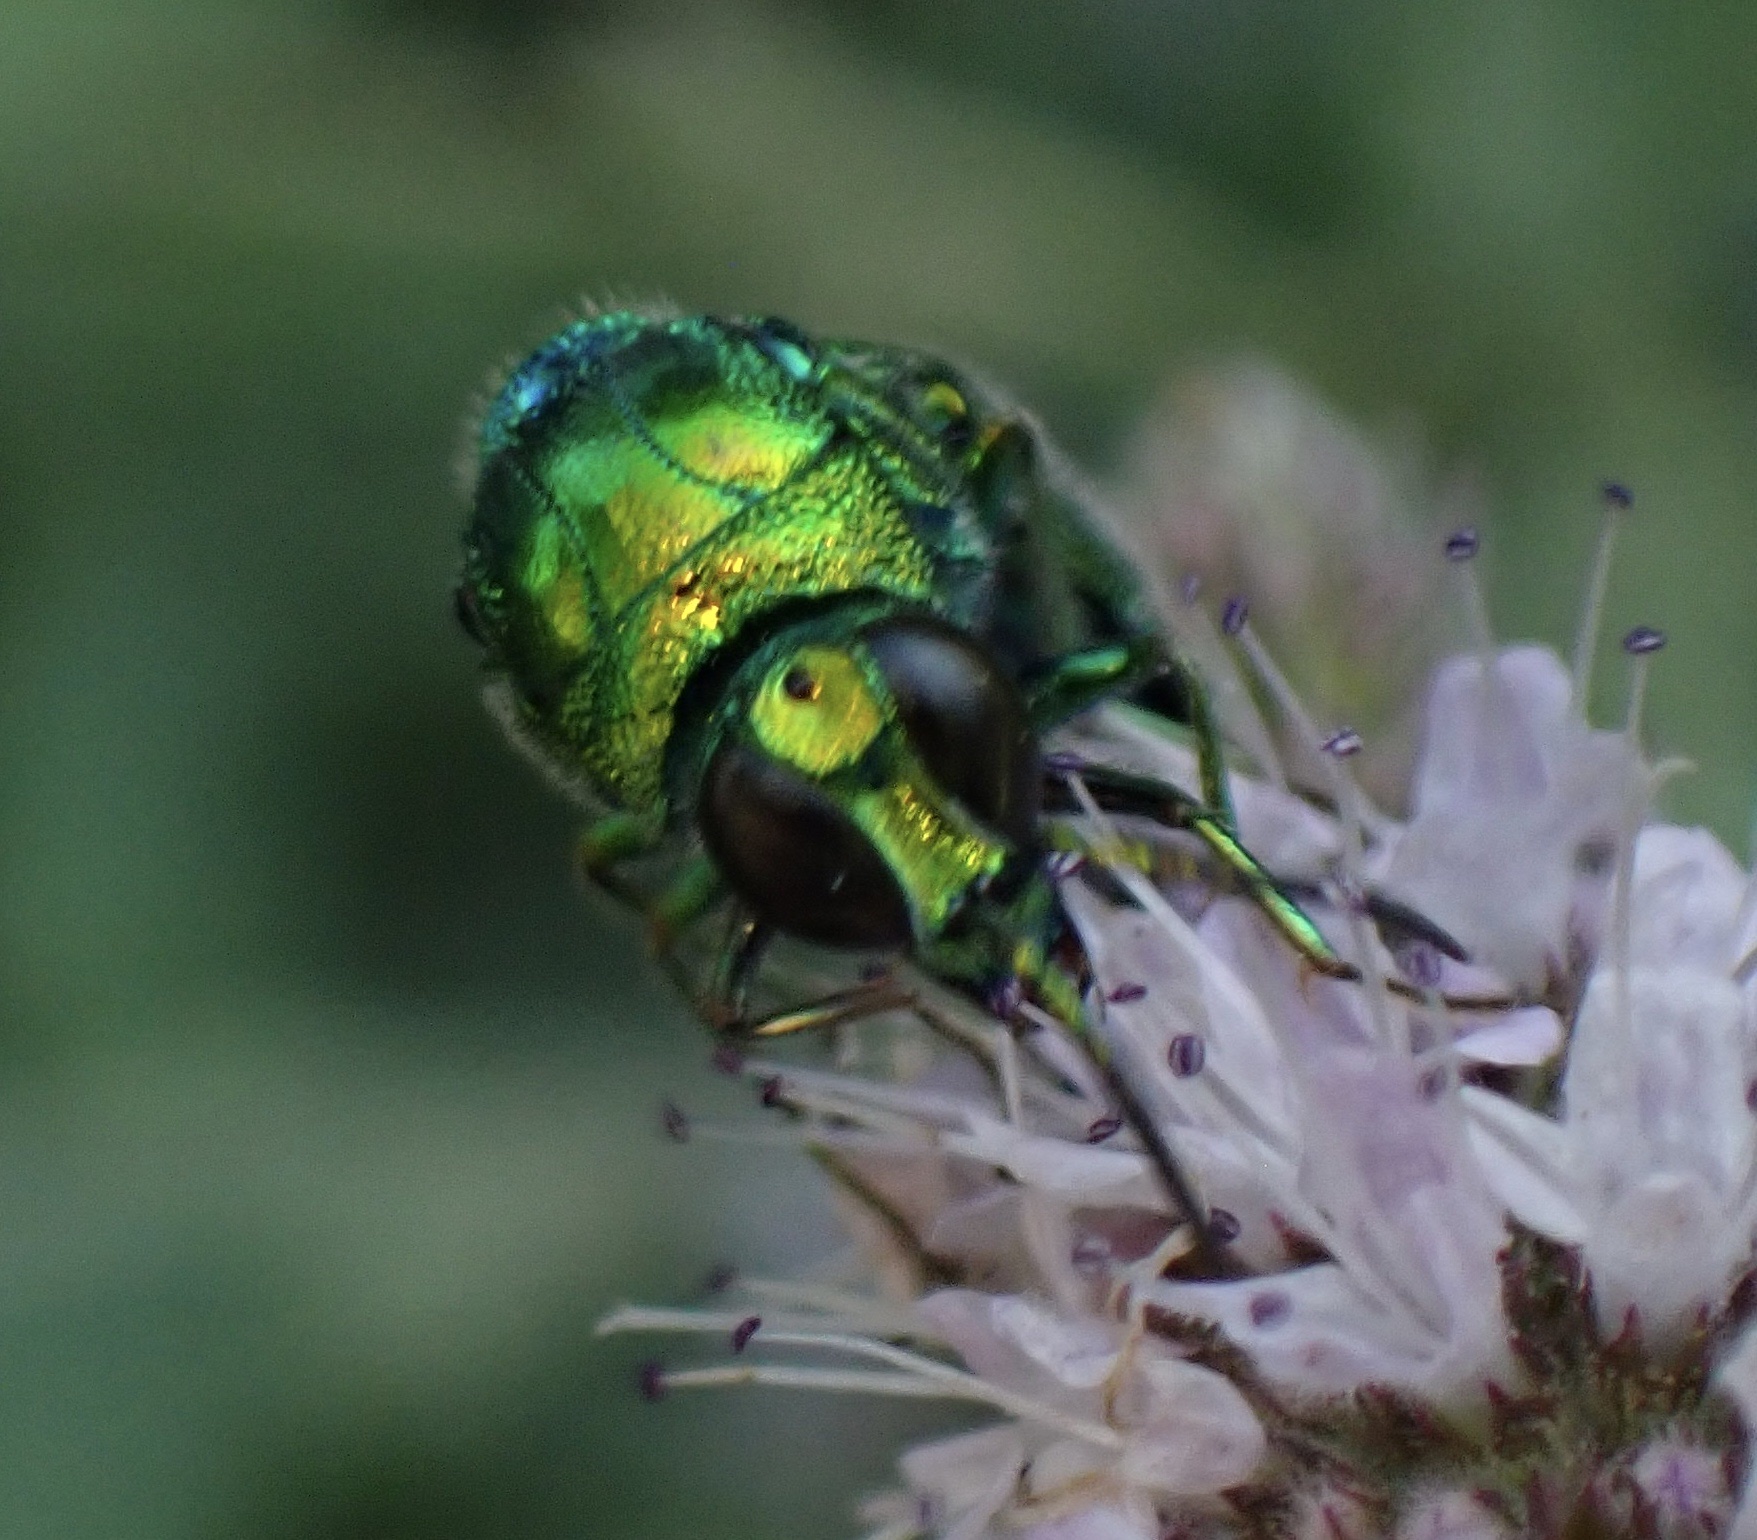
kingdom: Animalia
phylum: Arthropoda
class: Insecta
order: Hymenoptera
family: Chrysididae
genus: Stilbum
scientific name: Stilbum cyanurum
